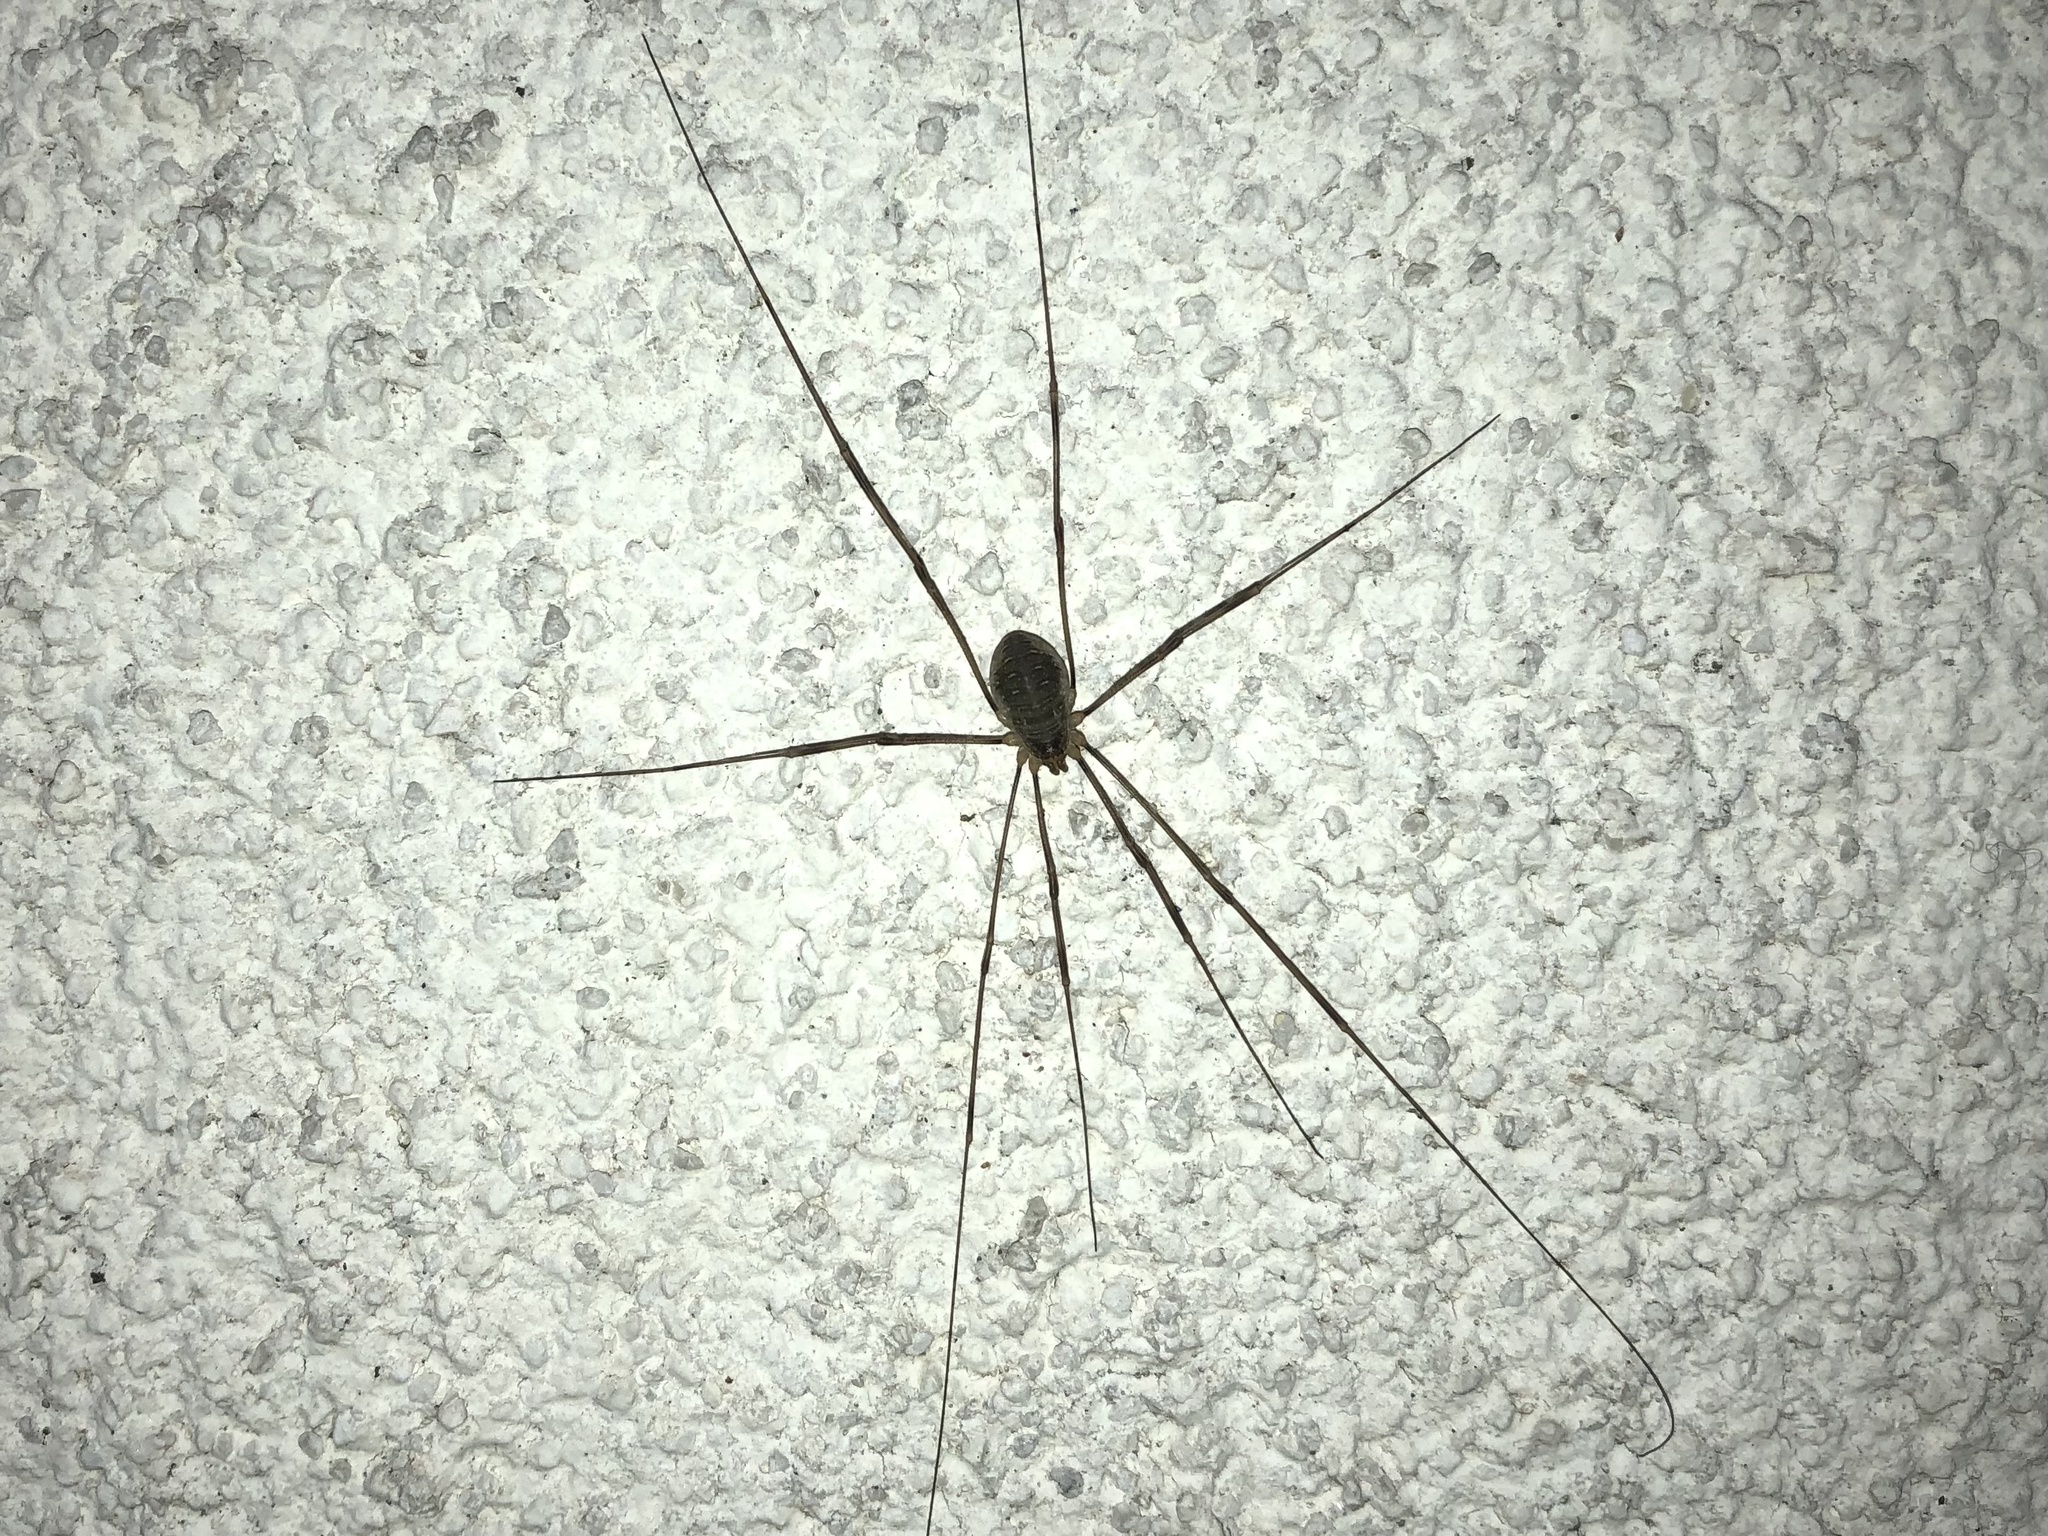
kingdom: Animalia
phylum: Arthropoda
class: Arachnida
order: Opiliones
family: Phalangiidae
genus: Opilio
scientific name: Opilio canestrinii
